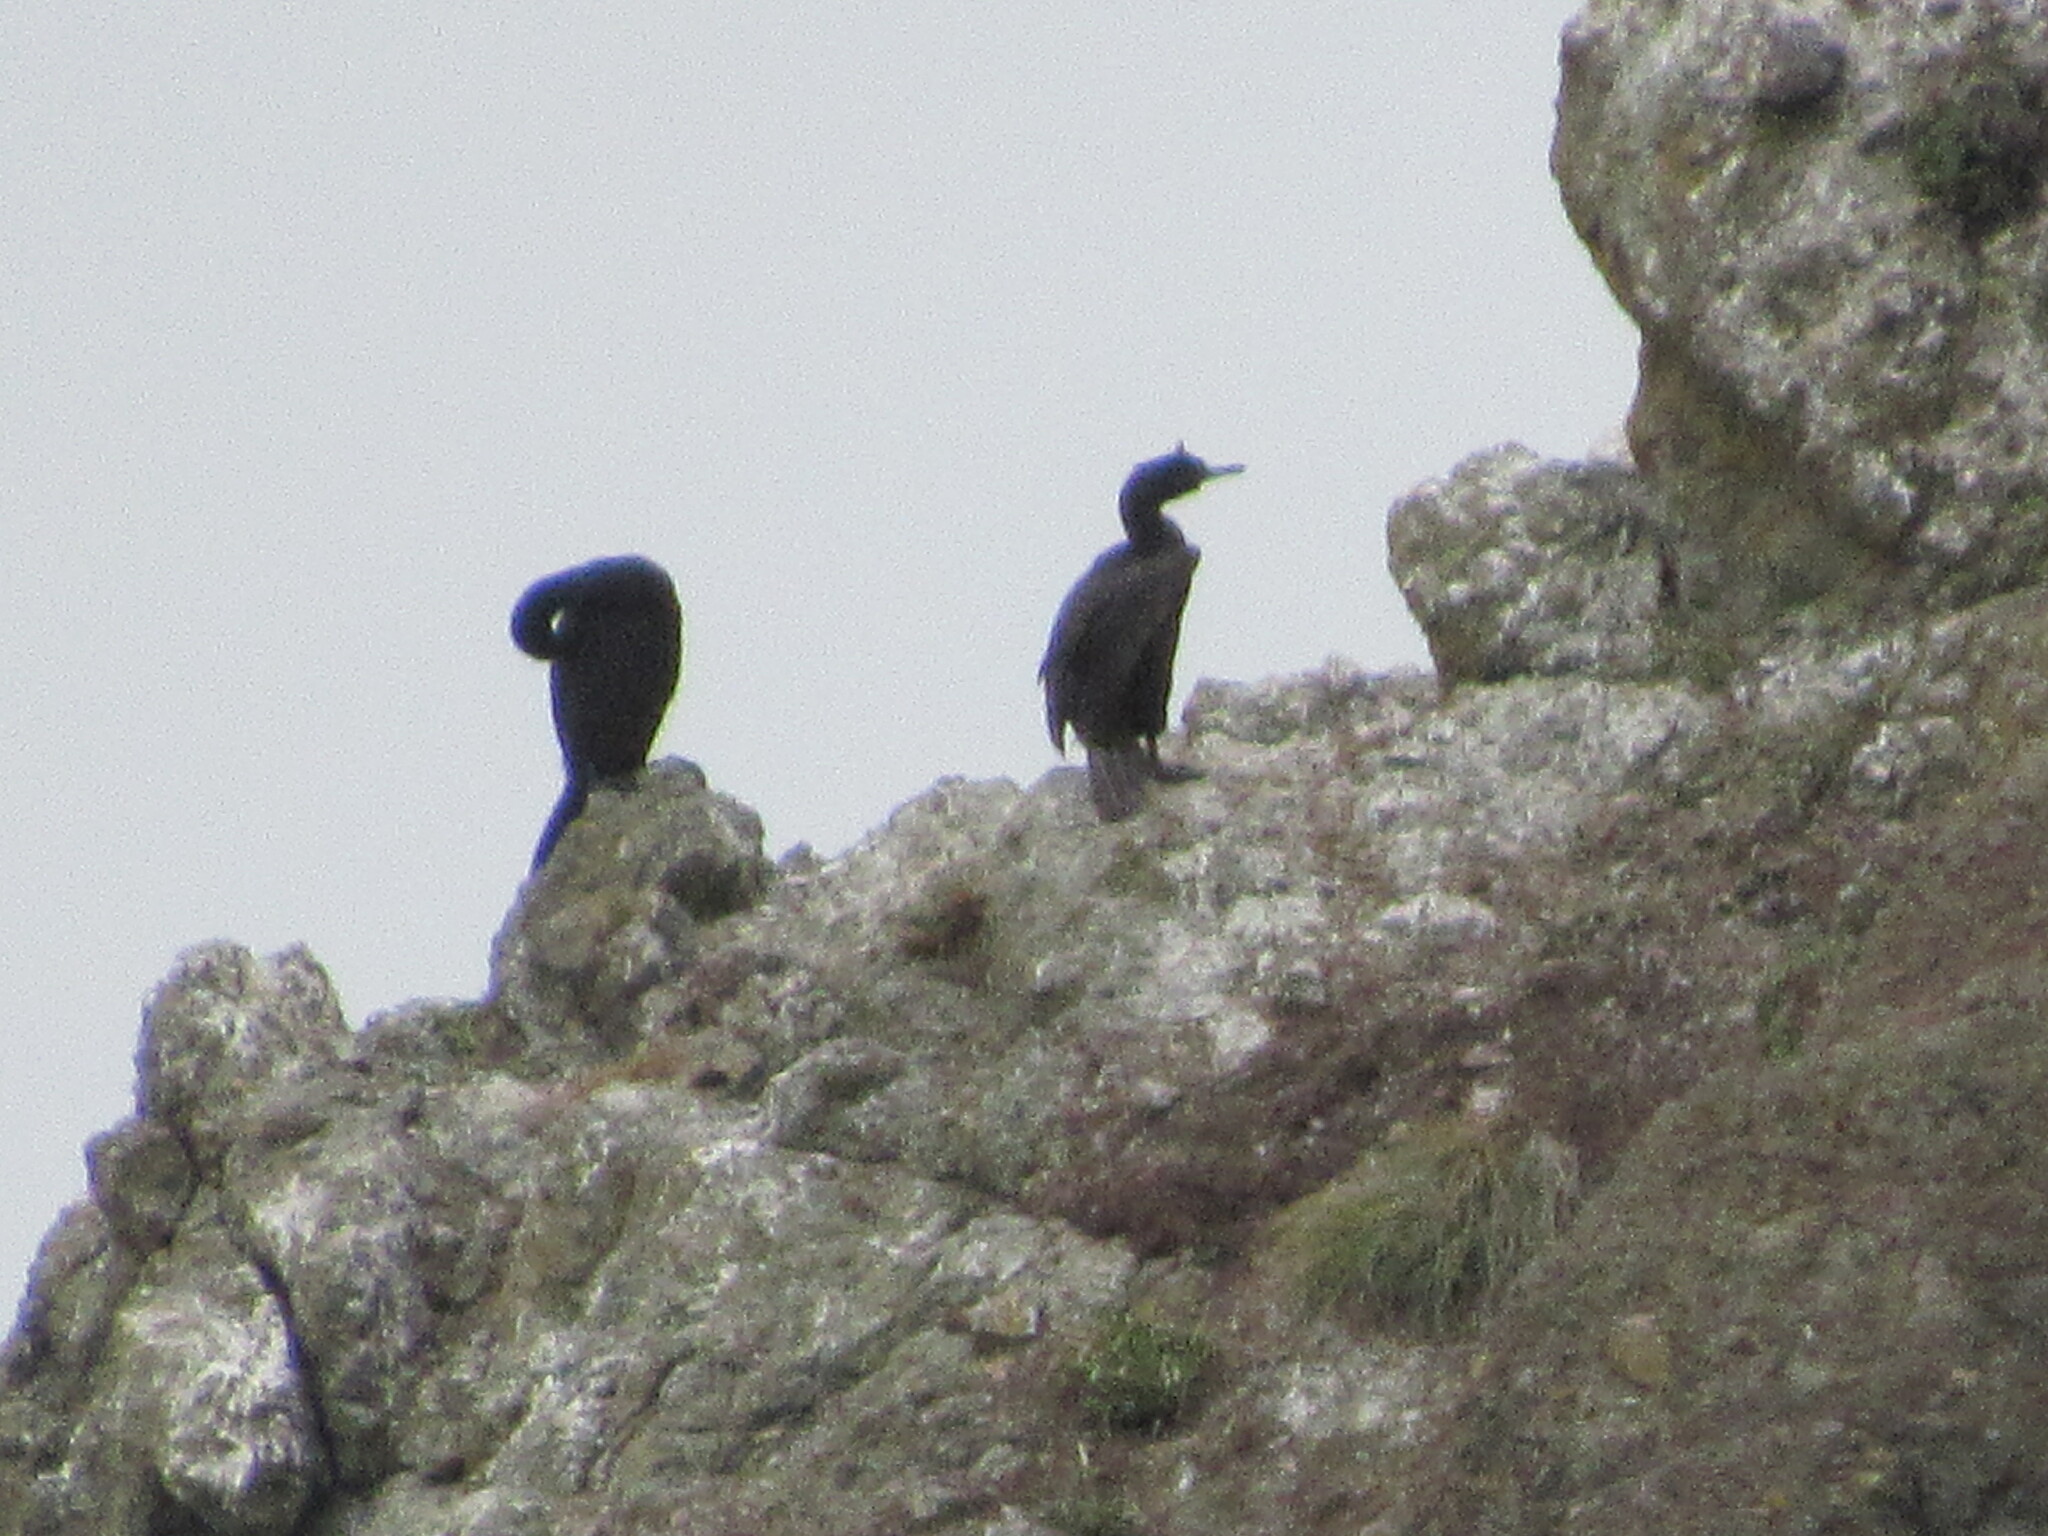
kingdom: Animalia
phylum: Chordata
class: Aves
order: Suliformes
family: Phalacrocoracidae
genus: Phalacrocorax
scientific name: Phalacrocorax pelagicus
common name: Pelagic cormorant
